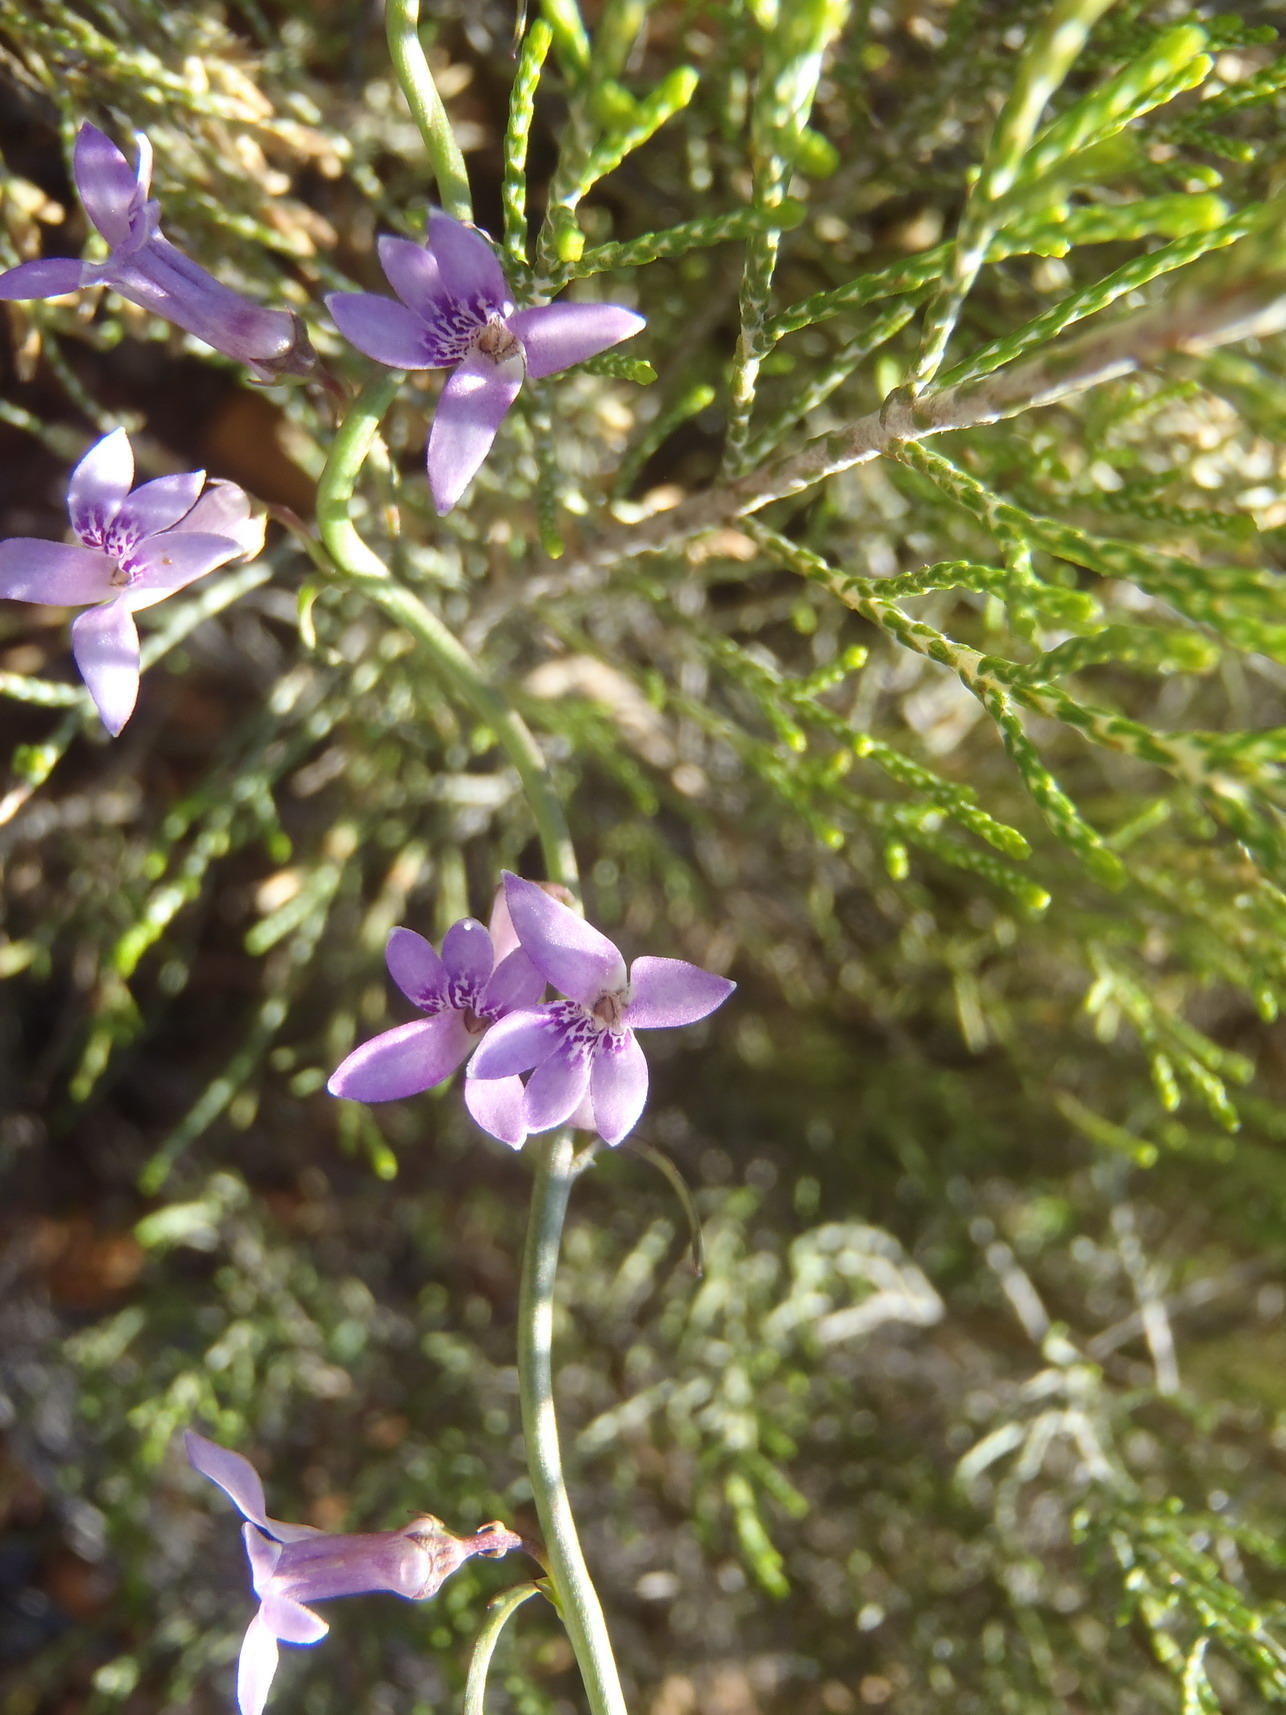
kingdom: Plantae
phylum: Tracheophyta
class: Magnoliopsida
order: Asterales
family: Campanulaceae
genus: Cyphia
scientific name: Cyphia sylvatica
